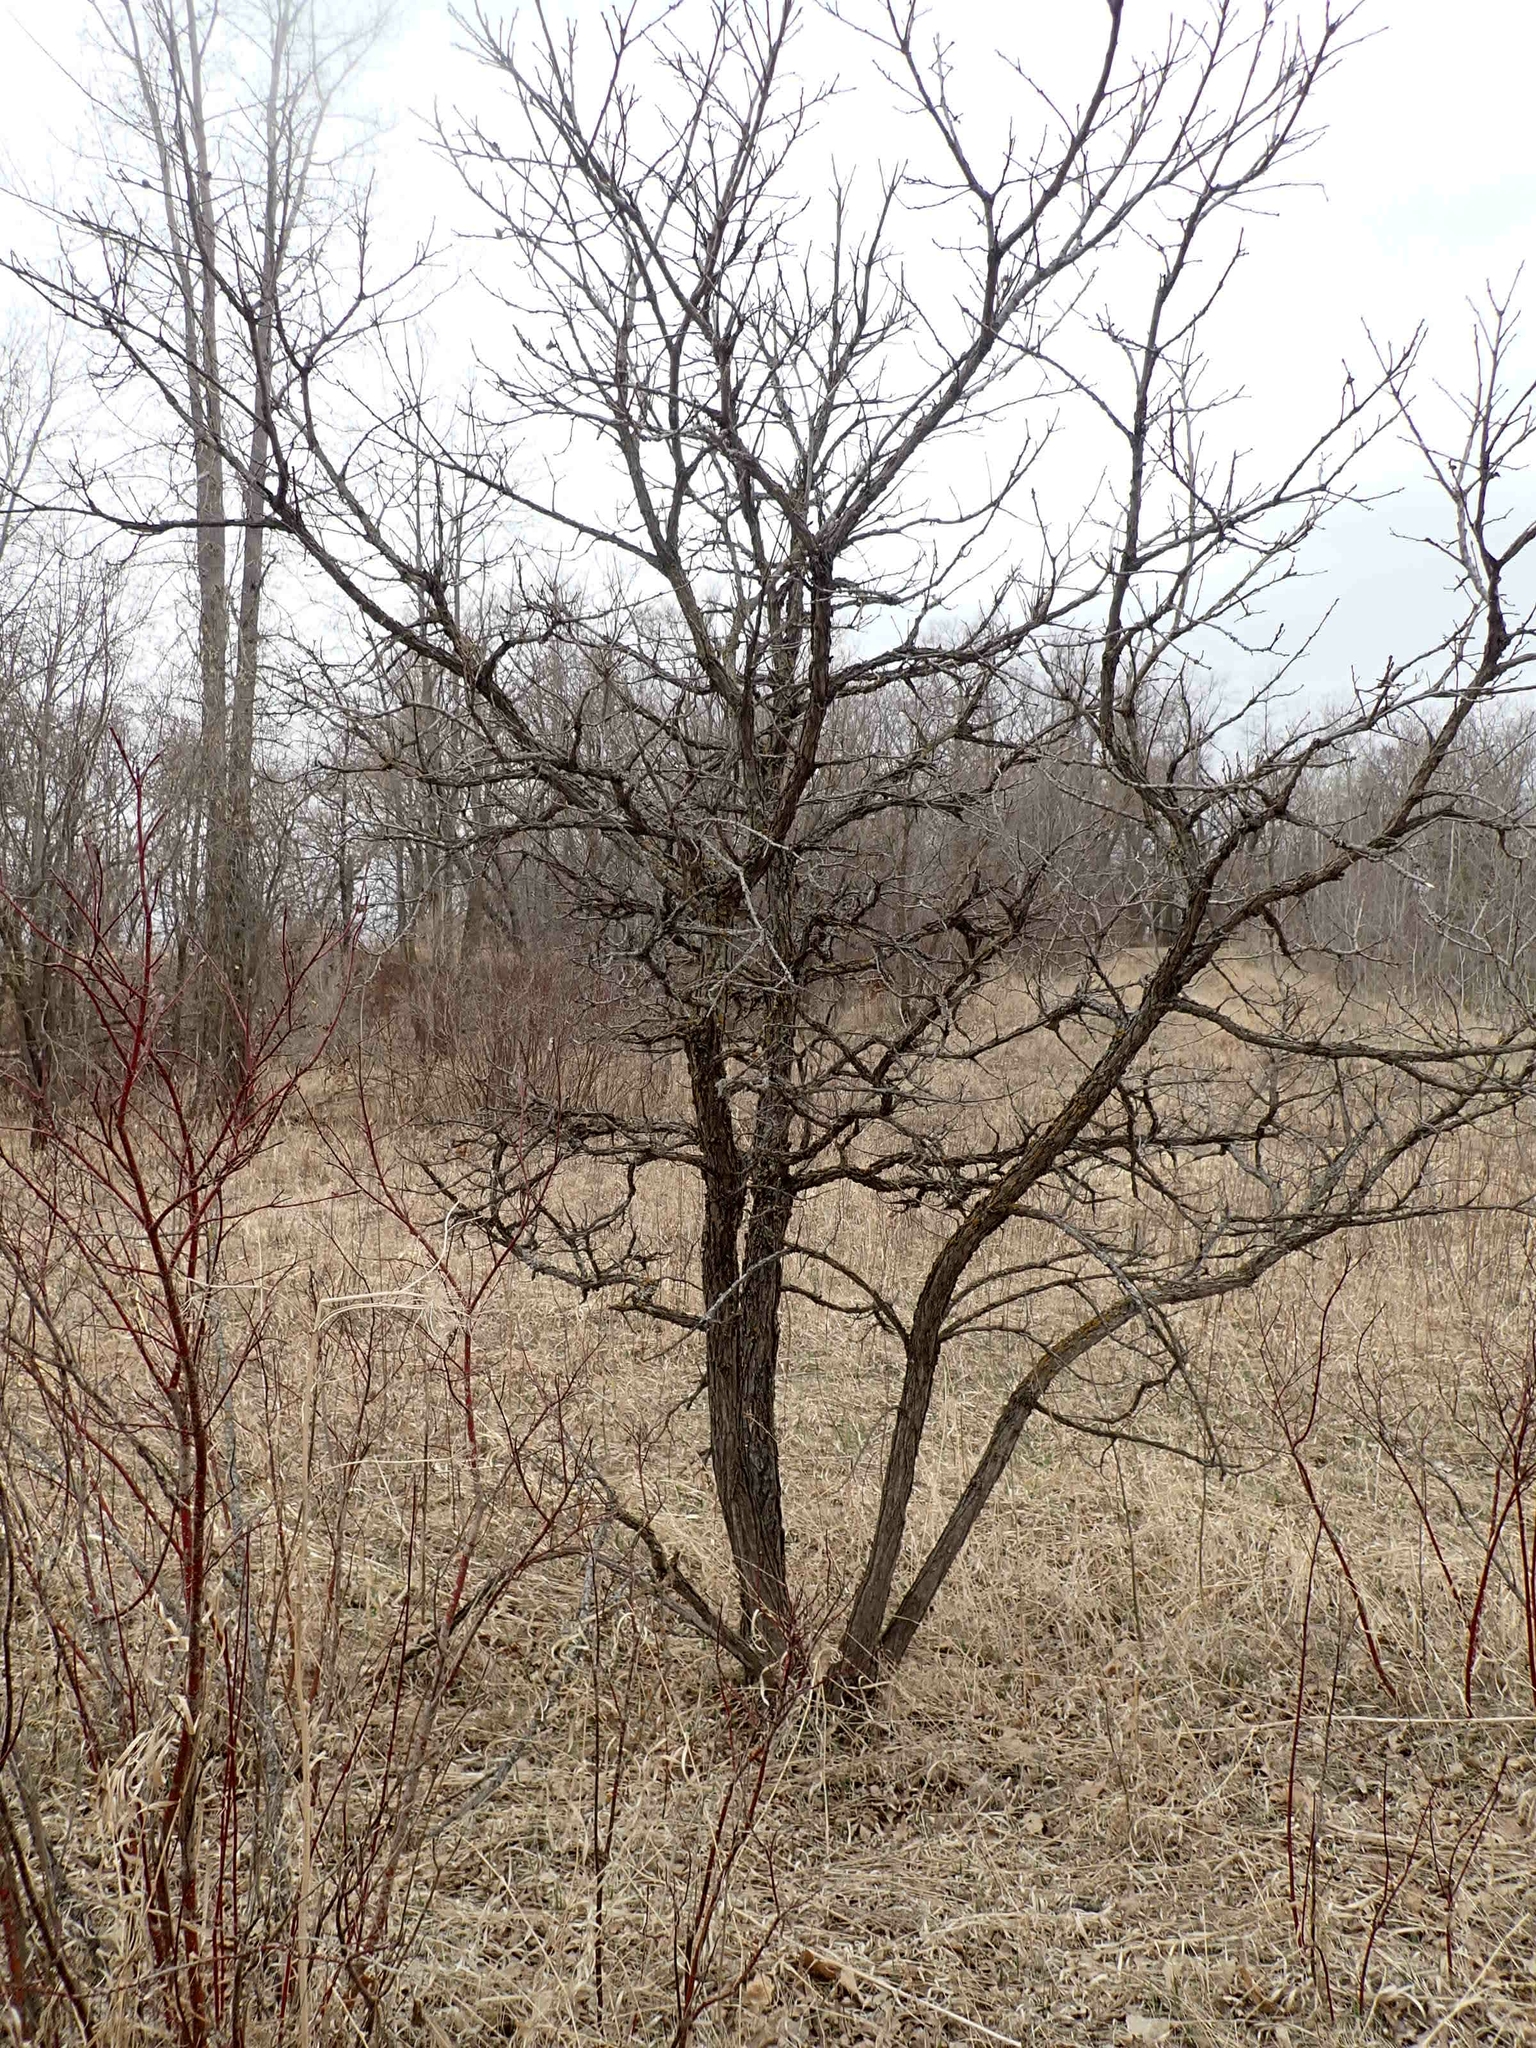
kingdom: Plantae
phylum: Tracheophyta
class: Magnoliopsida
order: Fagales
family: Fagaceae
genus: Quercus
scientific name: Quercus macrocarpa
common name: Bur oak
